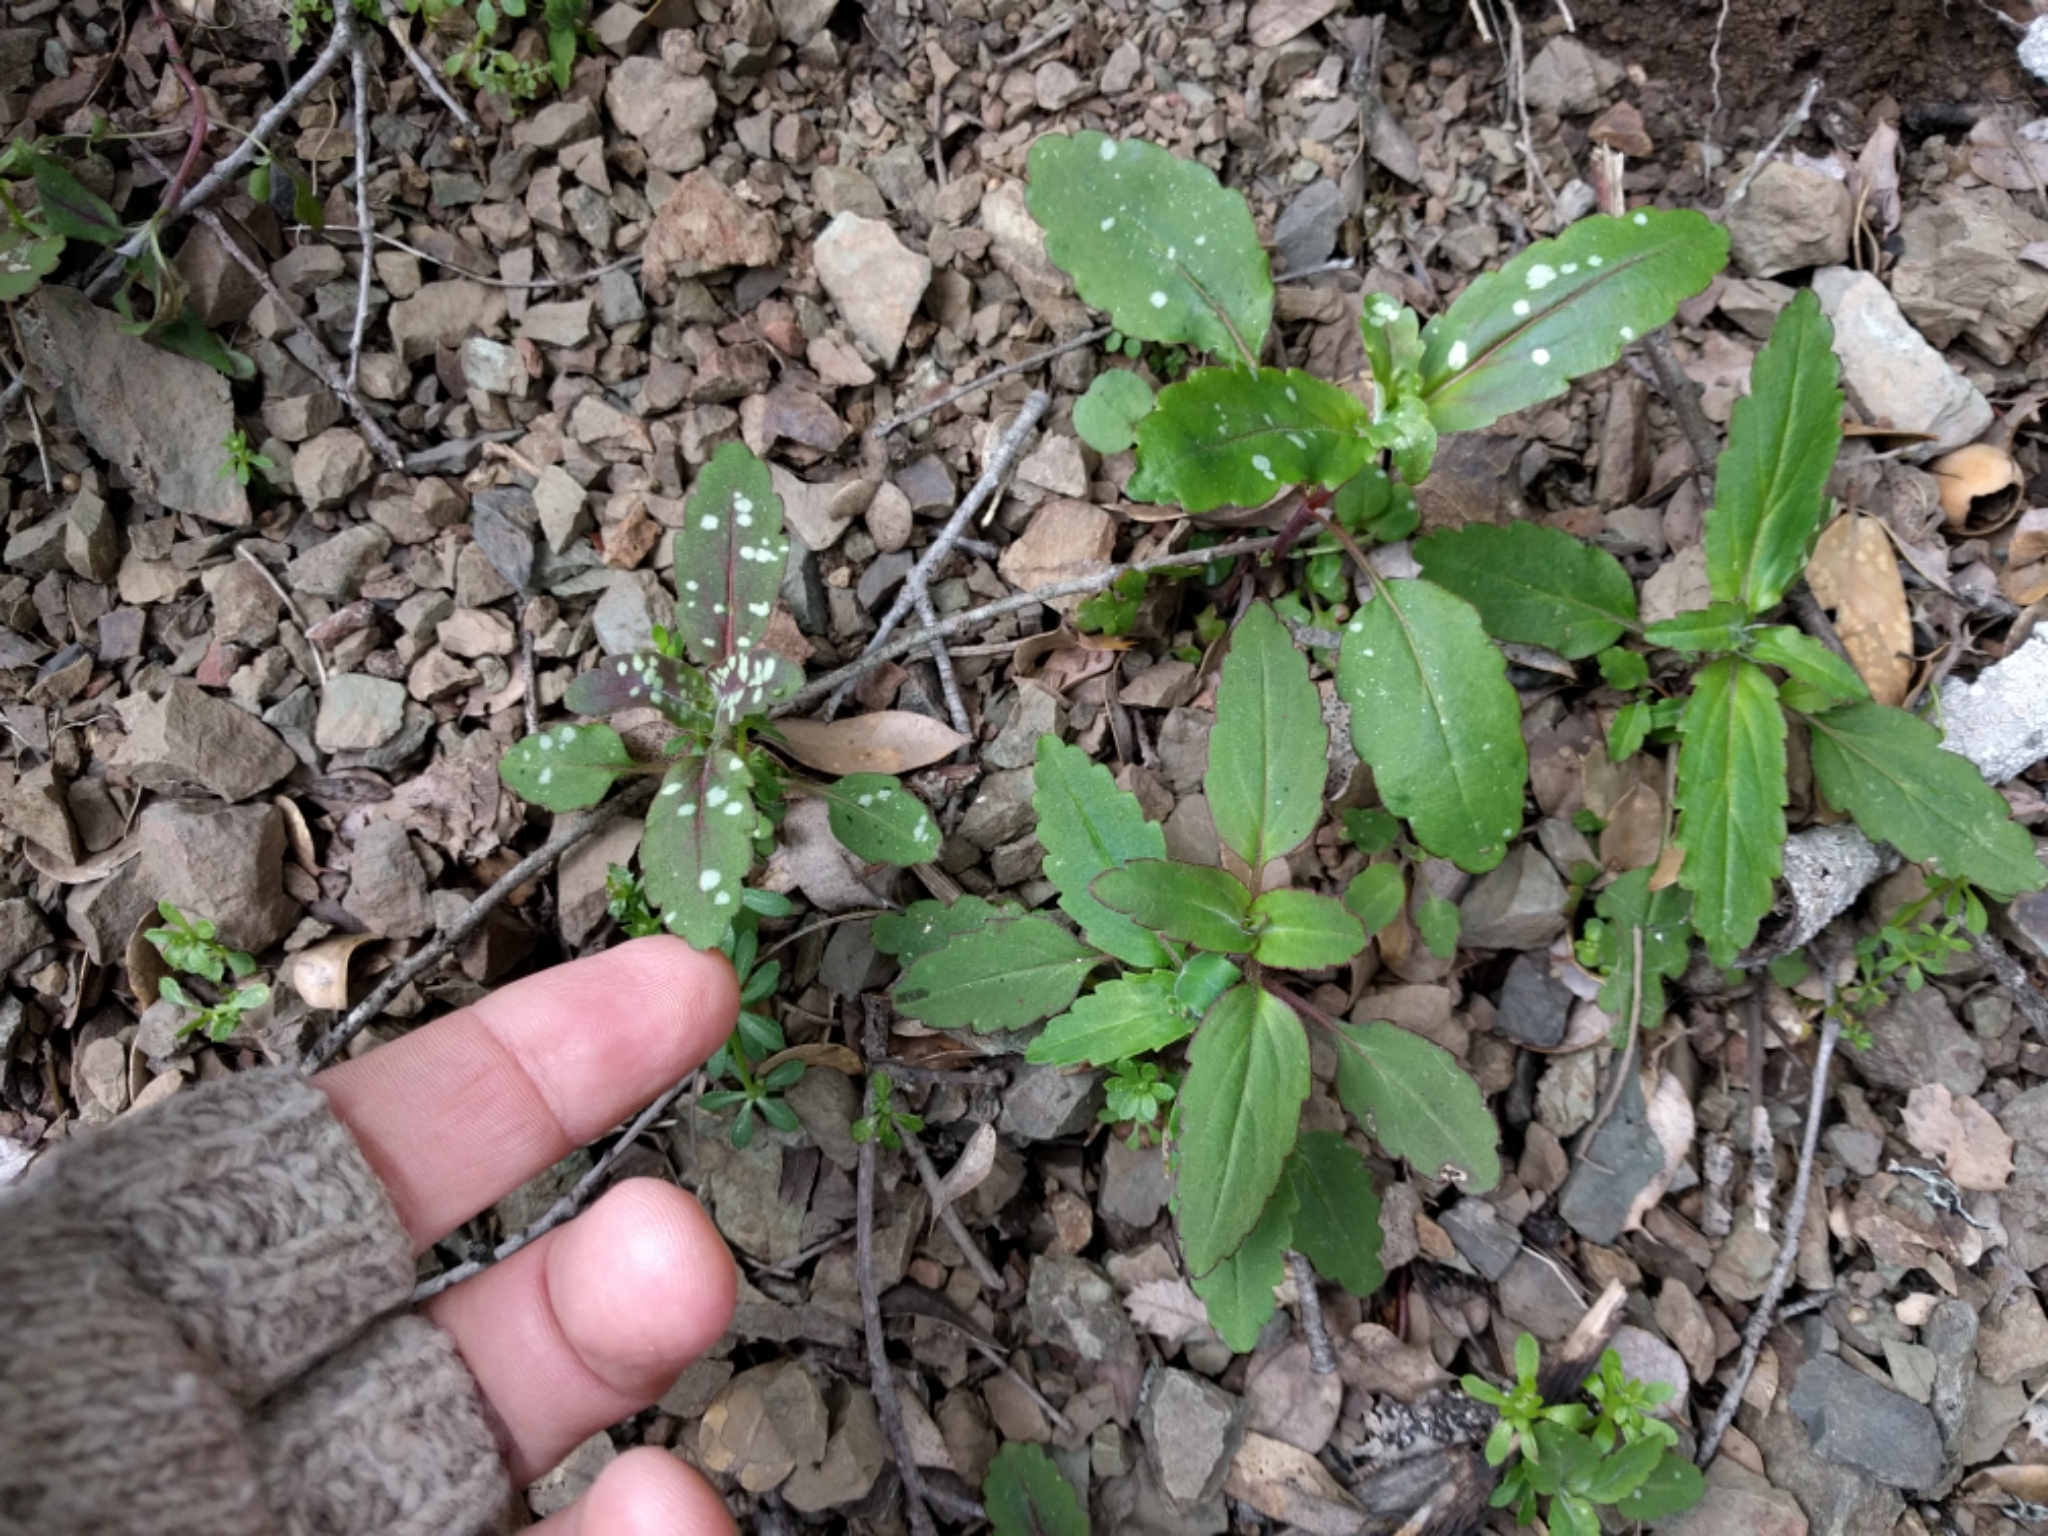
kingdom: Plantae
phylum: Tracheophyta
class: Magnoliopsida
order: Lamiales
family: Plantaginaceae
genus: Collinsia
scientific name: Collinsia tinctoria
